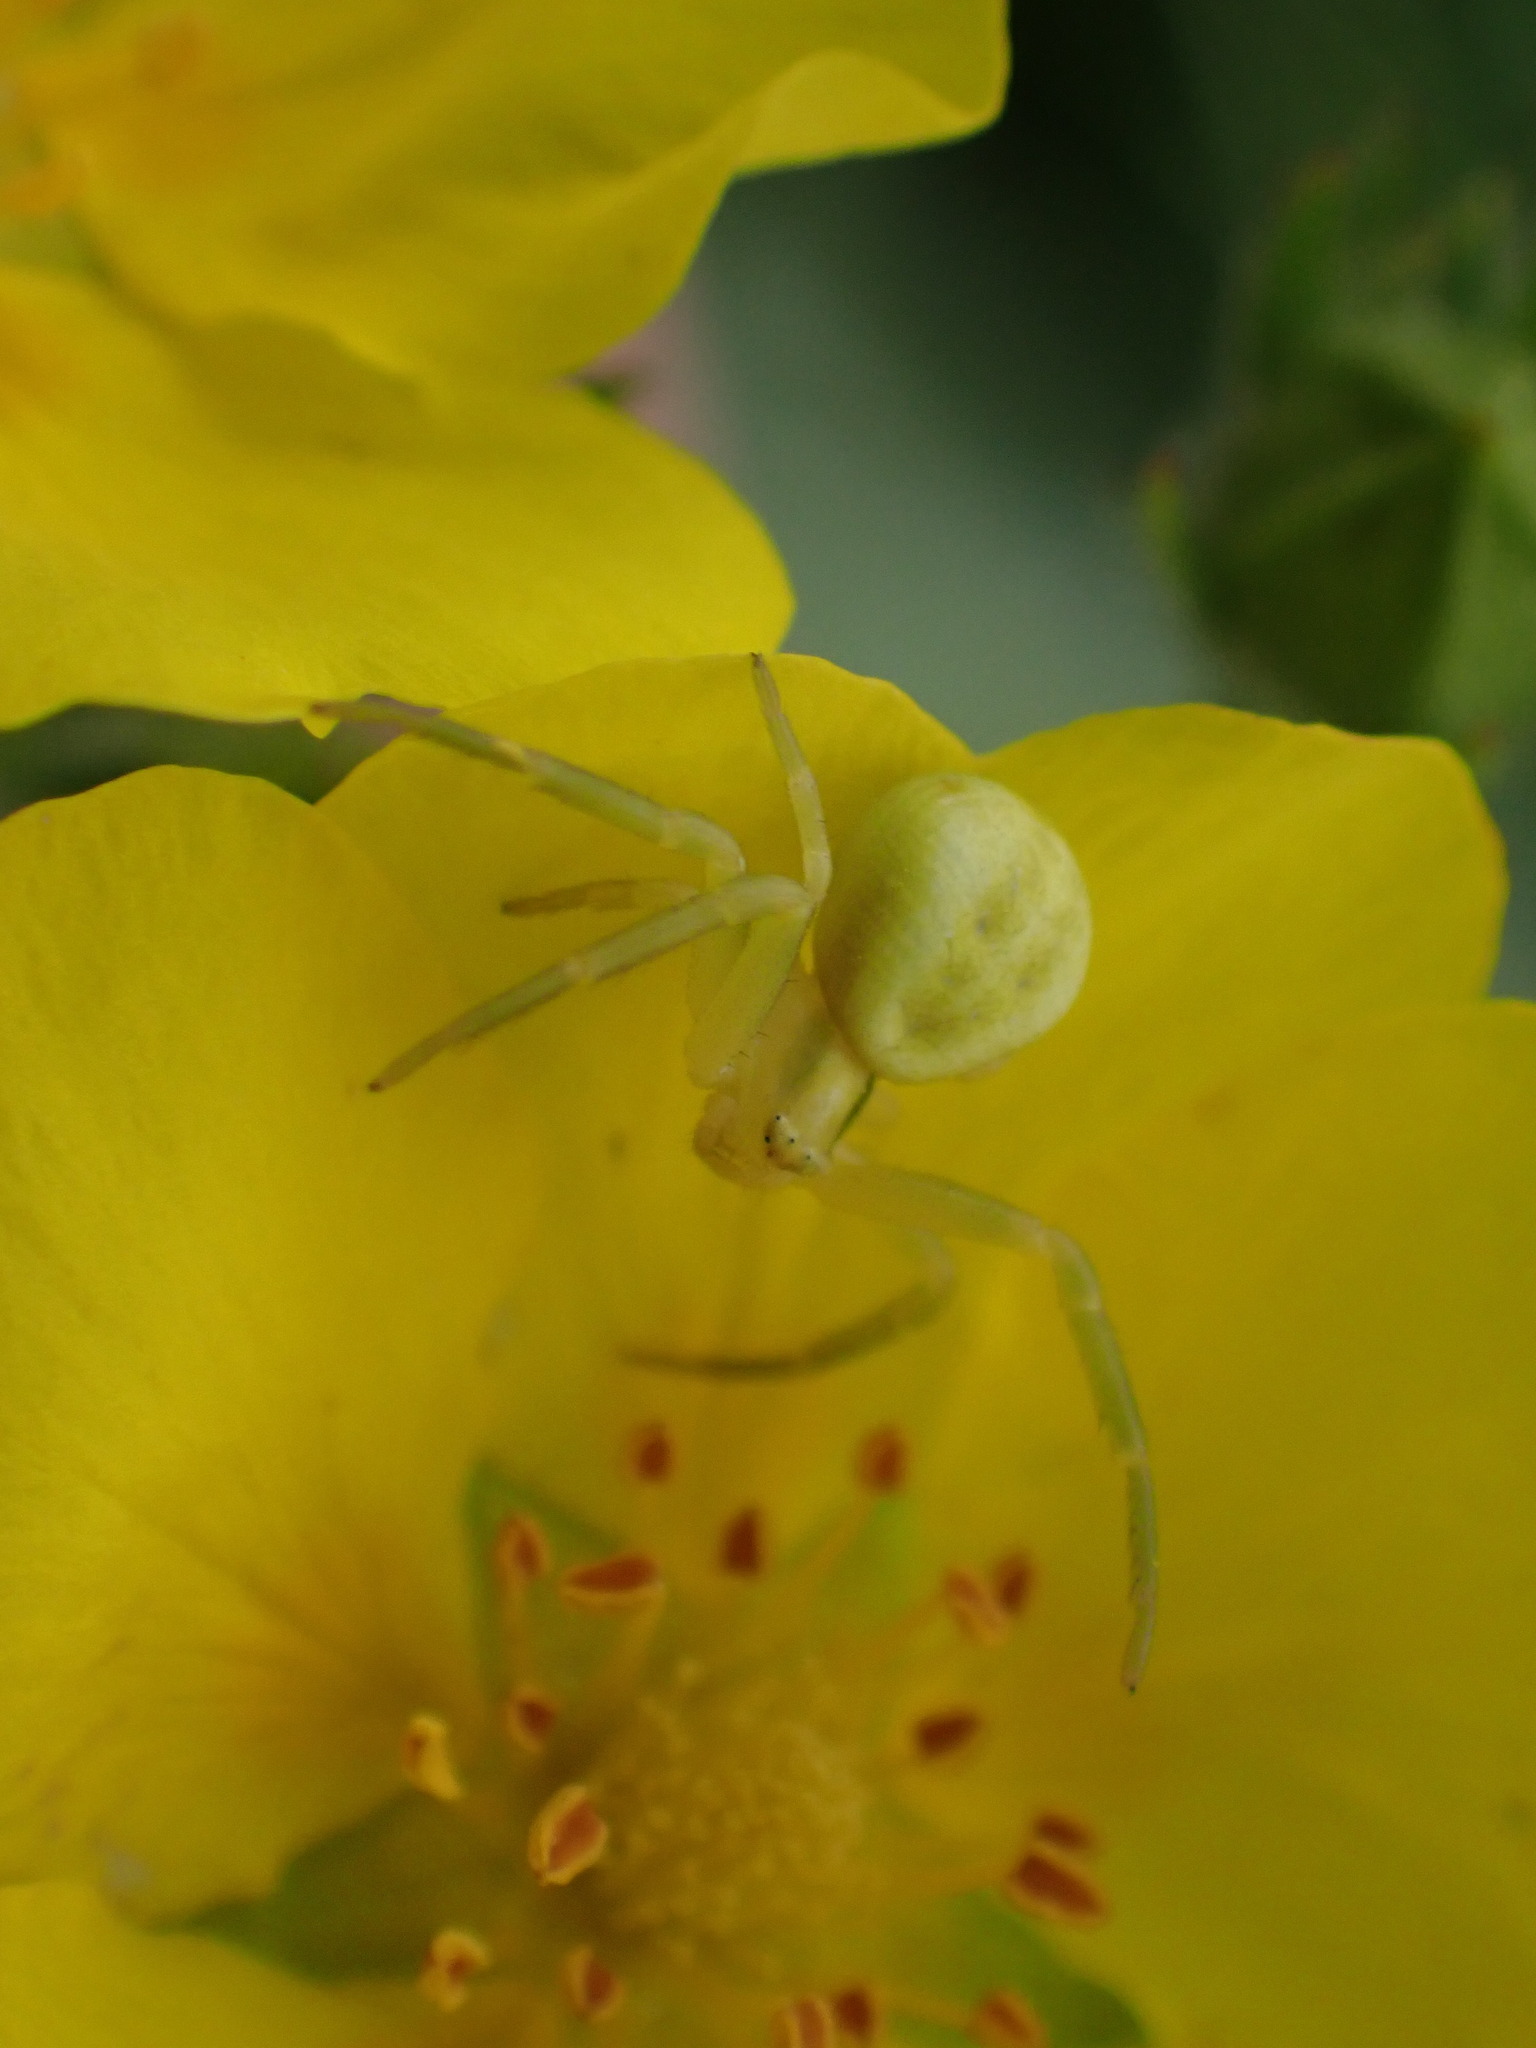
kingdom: Animalia
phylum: Arthropoda
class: Arachnida
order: Araneae
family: Thomisidae
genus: Misumena
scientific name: Misumena vatia
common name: Goldenrod crab spider
